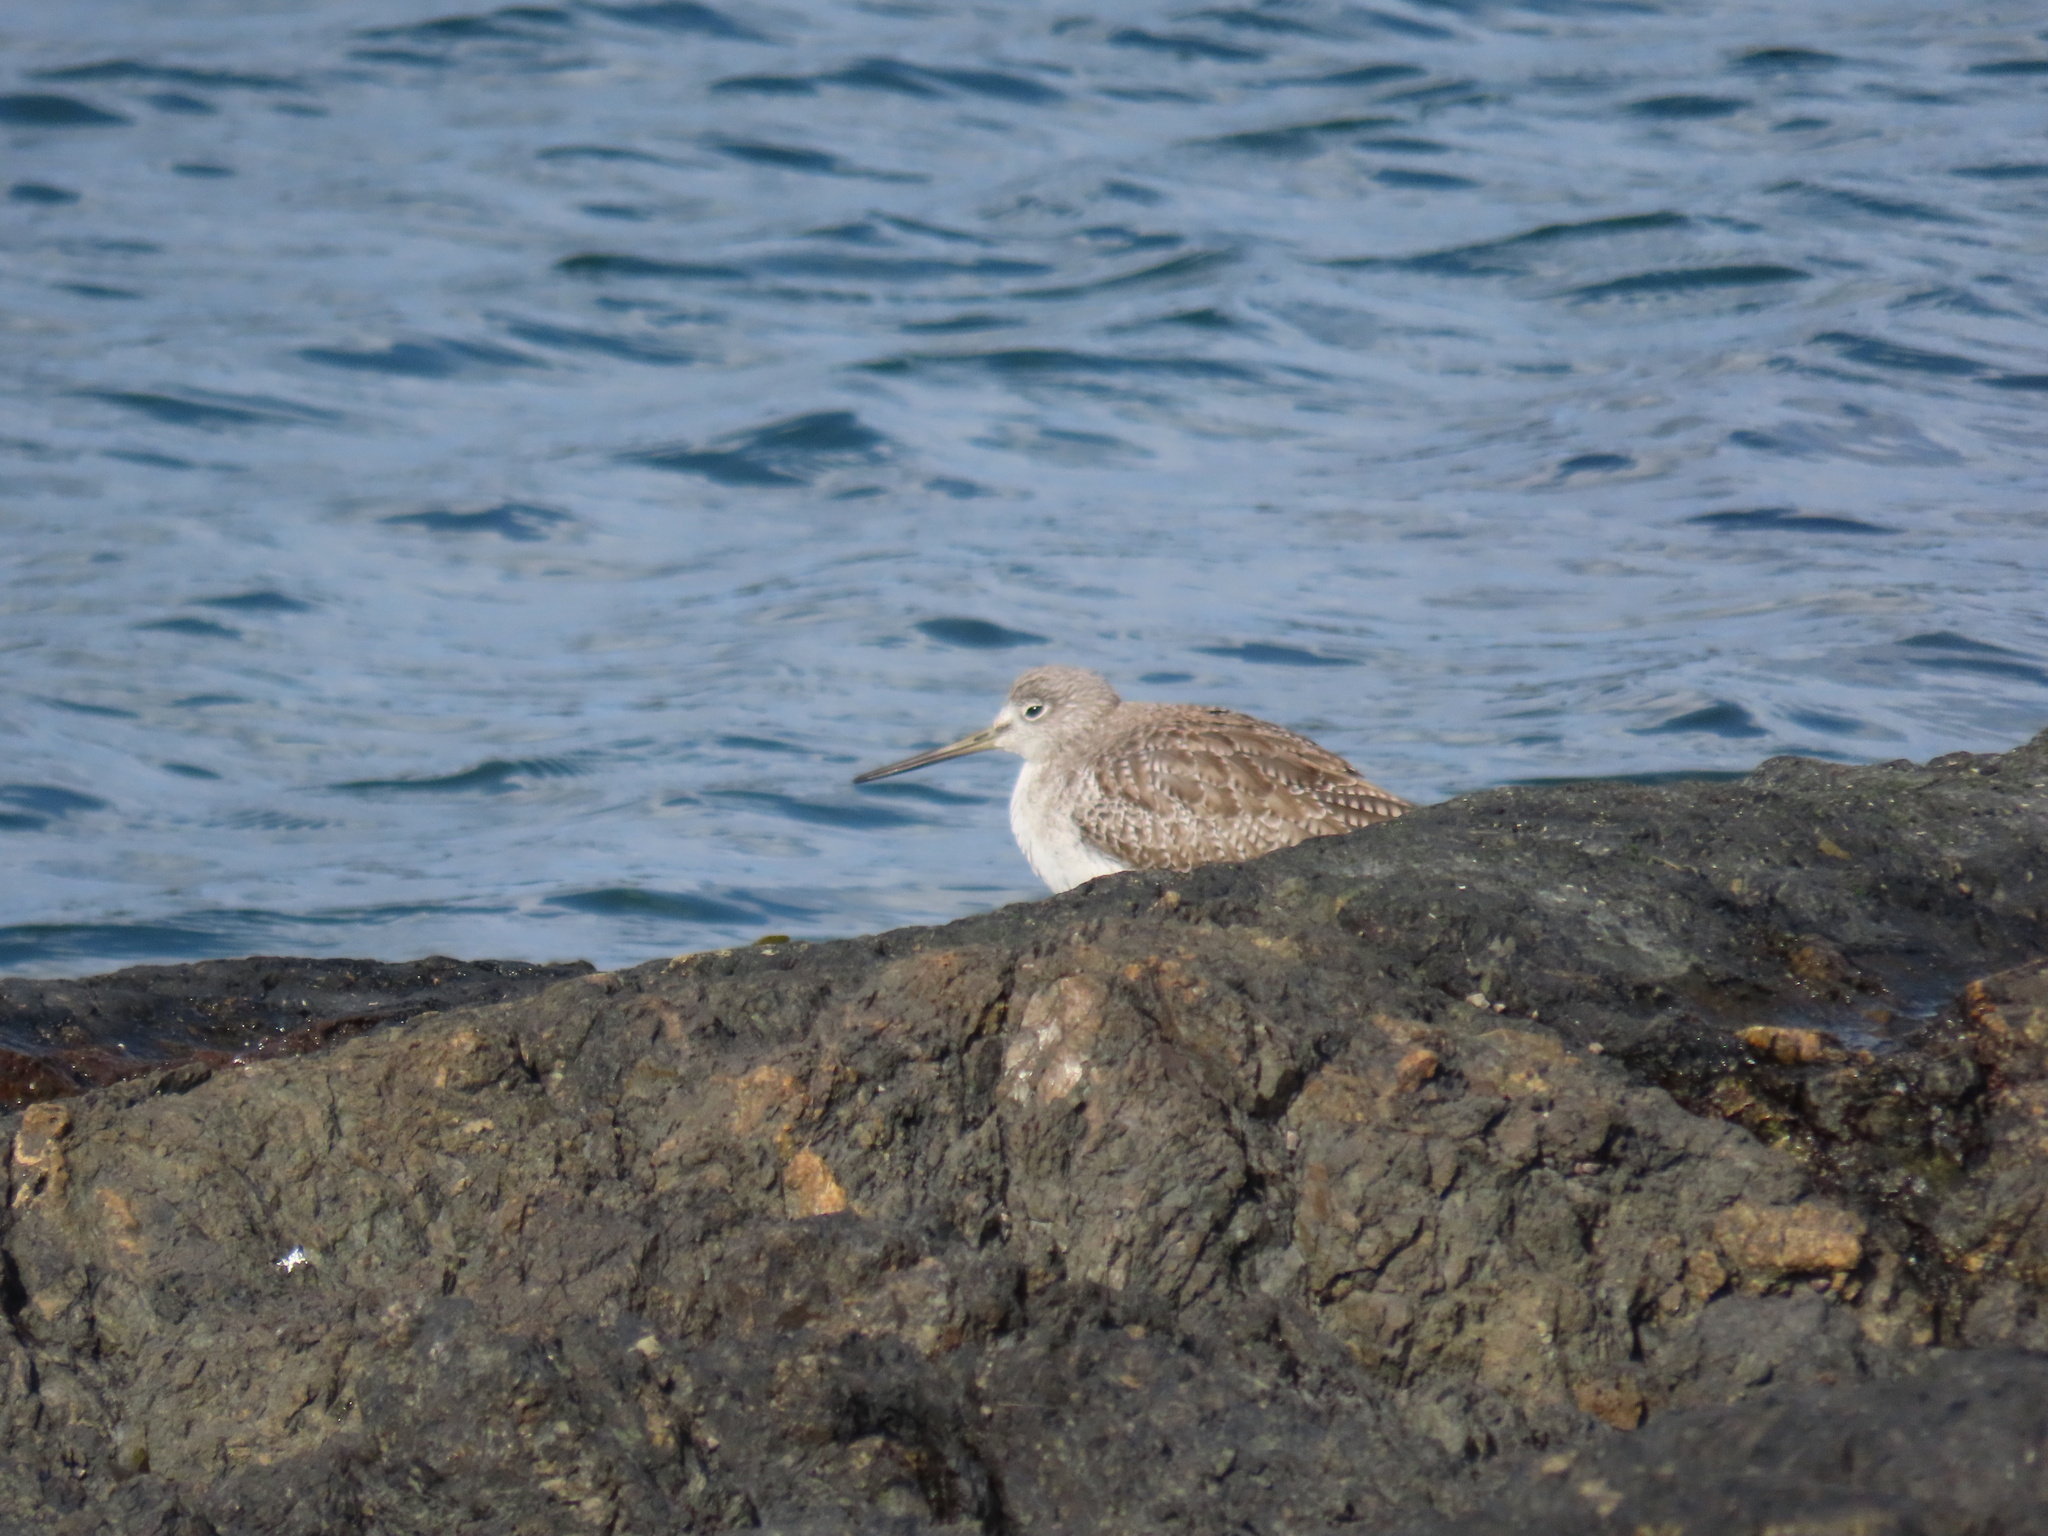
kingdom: Animalia
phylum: Chordata
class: Aves
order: Charadriiformes
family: Scolopacidae
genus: Tringa
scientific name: Tringa melanoleuca
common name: Greater yellowlegs
